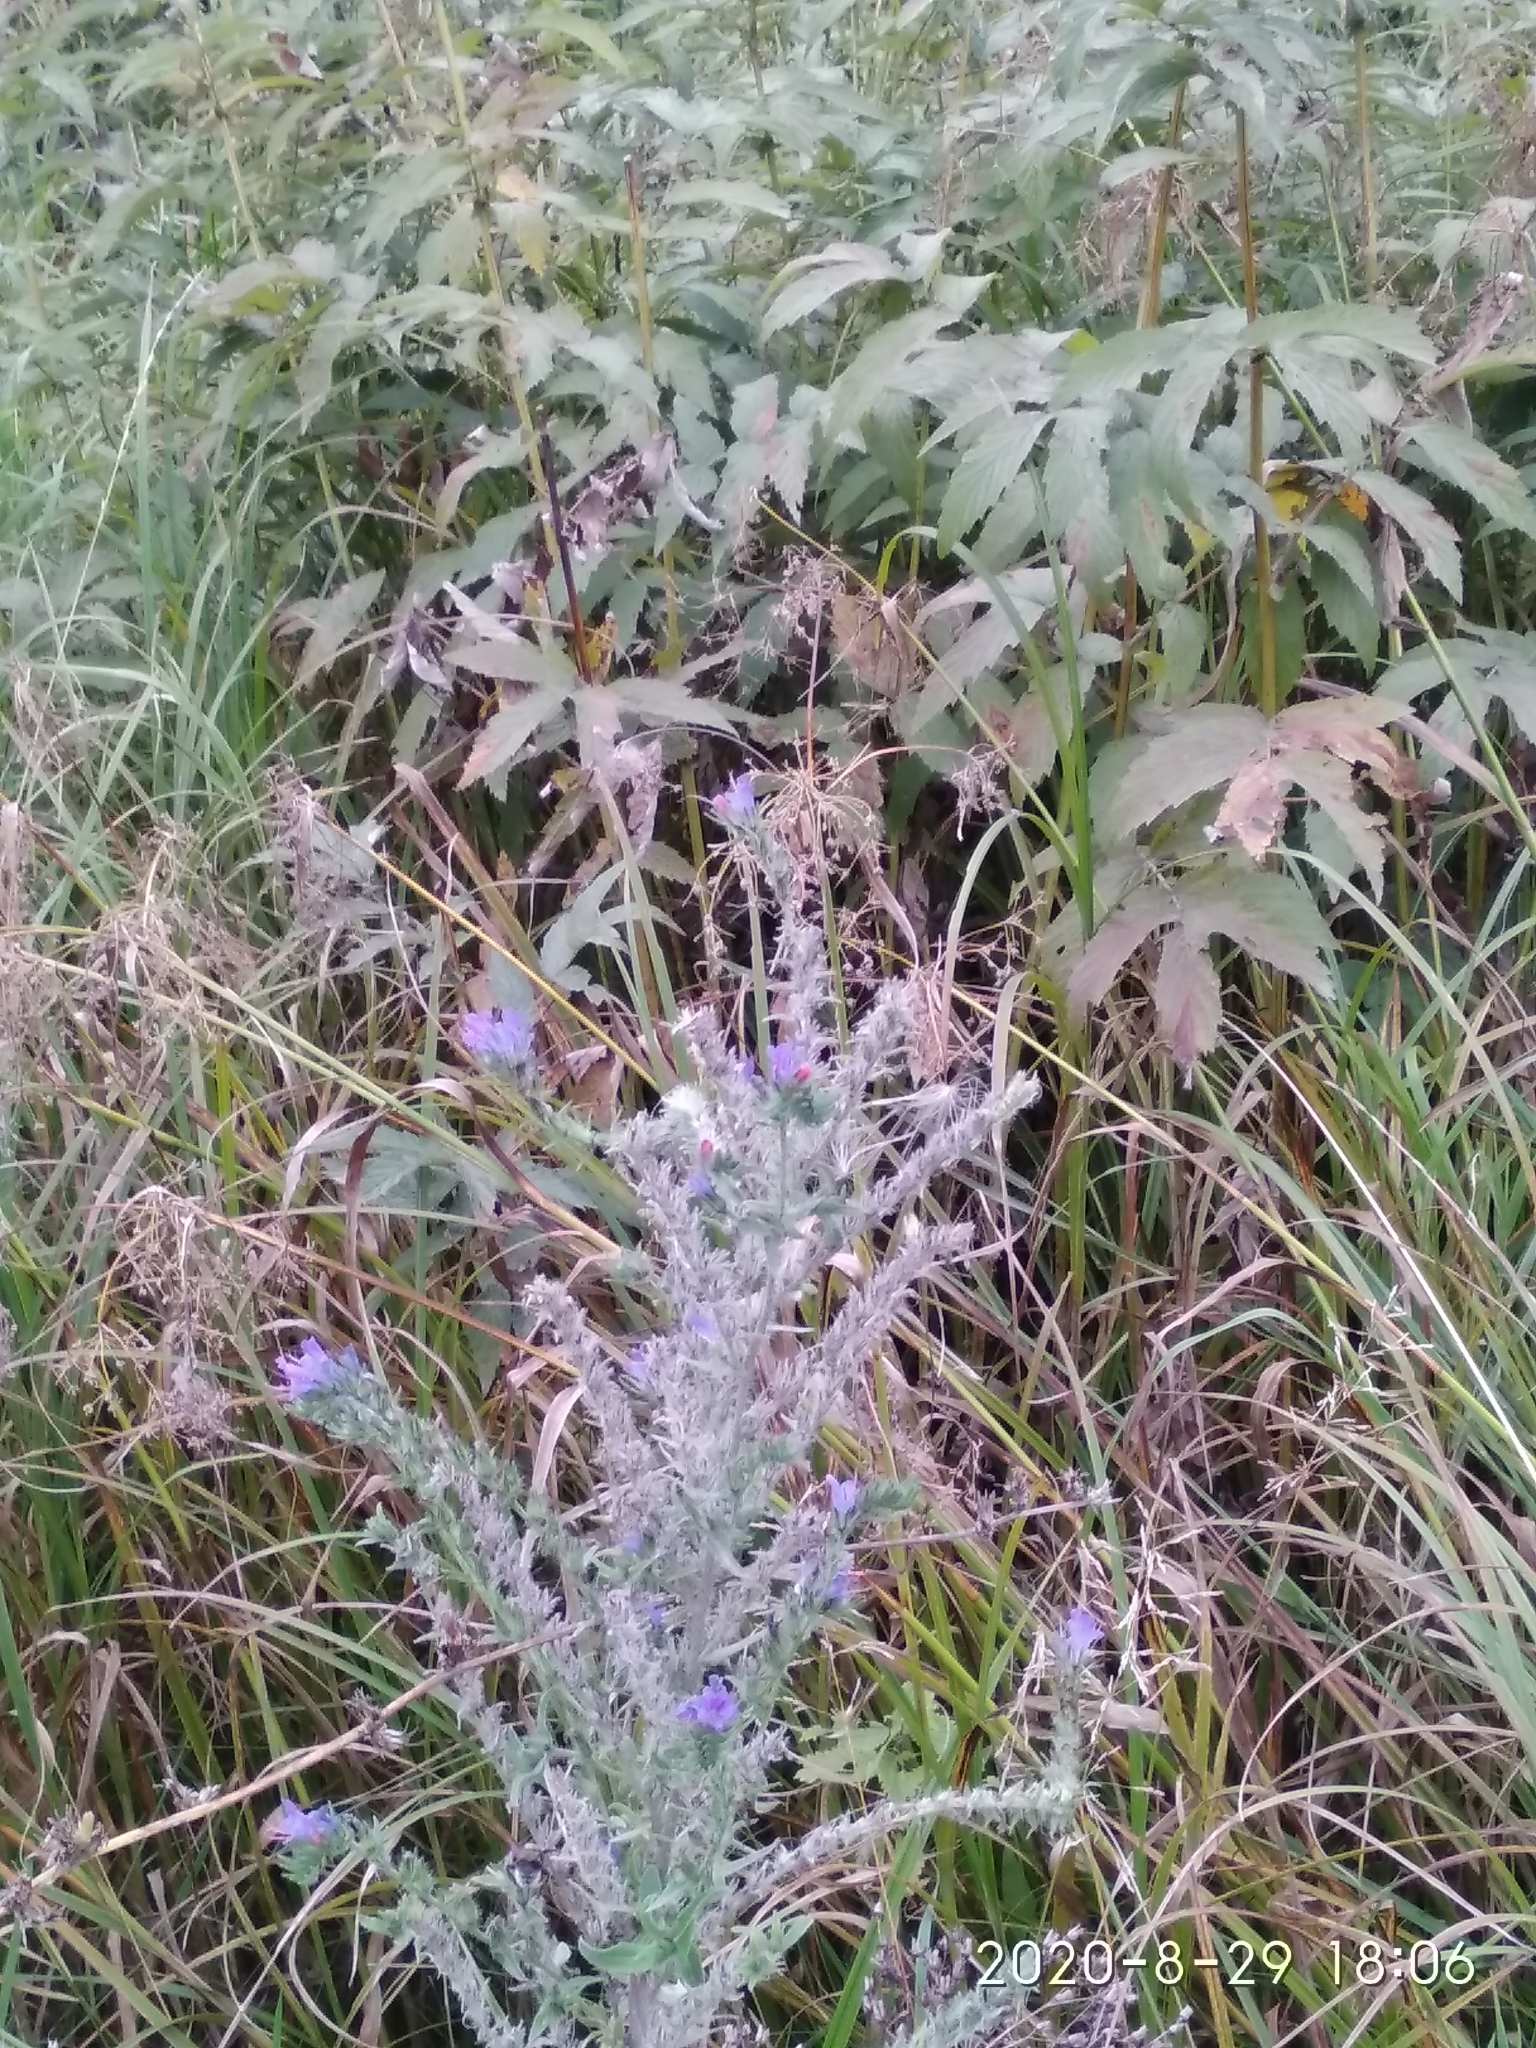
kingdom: Plantae
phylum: Tracheophyta
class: Magnoliopsida
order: Boraginales
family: Boraginaceae
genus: Echium
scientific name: Echium vulgare
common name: Common viper's bugloss
